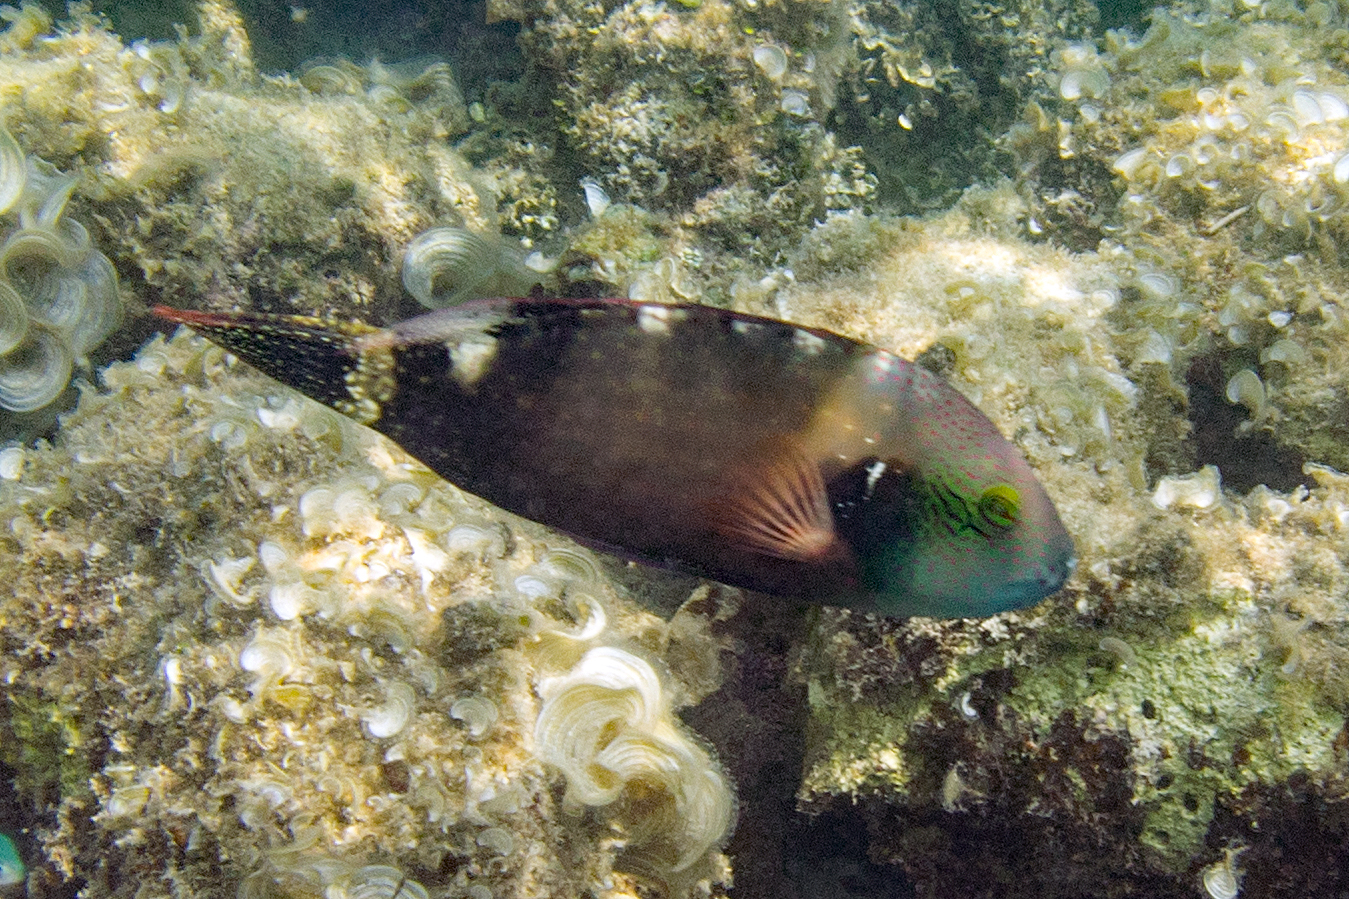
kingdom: Animalia
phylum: Chordata
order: Perciformes
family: Labridae
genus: Cheilinus
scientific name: Cheilinus chlorourus
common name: Floral wrasse
